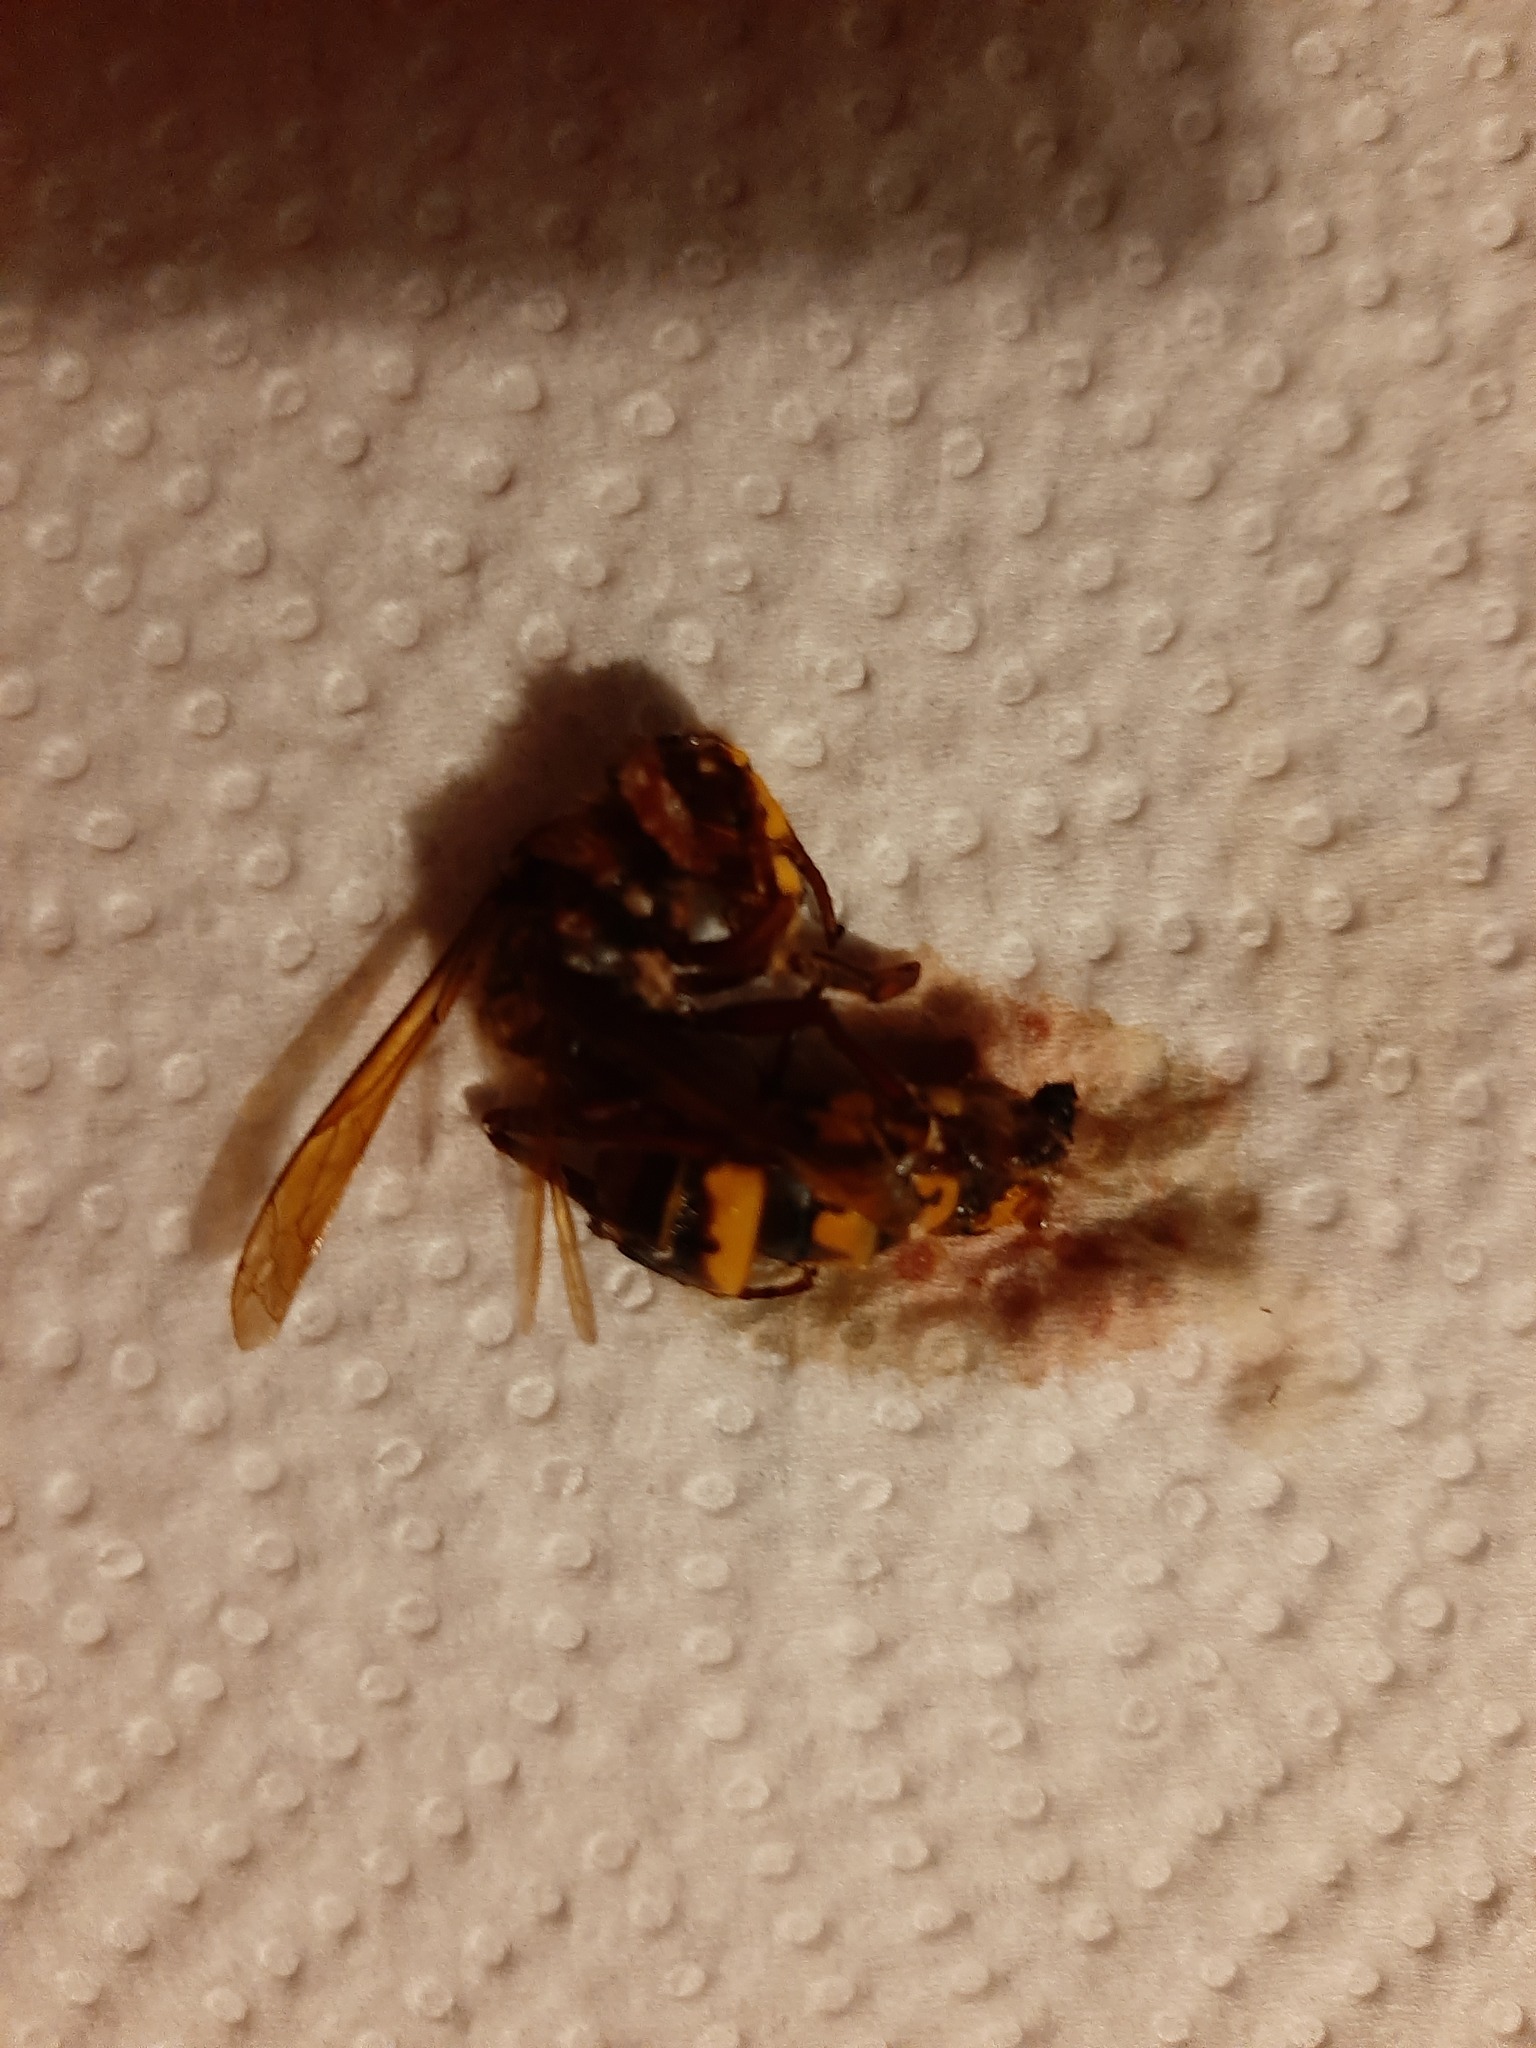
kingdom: Animalia
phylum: Arthropoda
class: Insecta
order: Hymenoptera
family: Vespidae
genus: Vespa
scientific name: Vespa crabro
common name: Hornet
